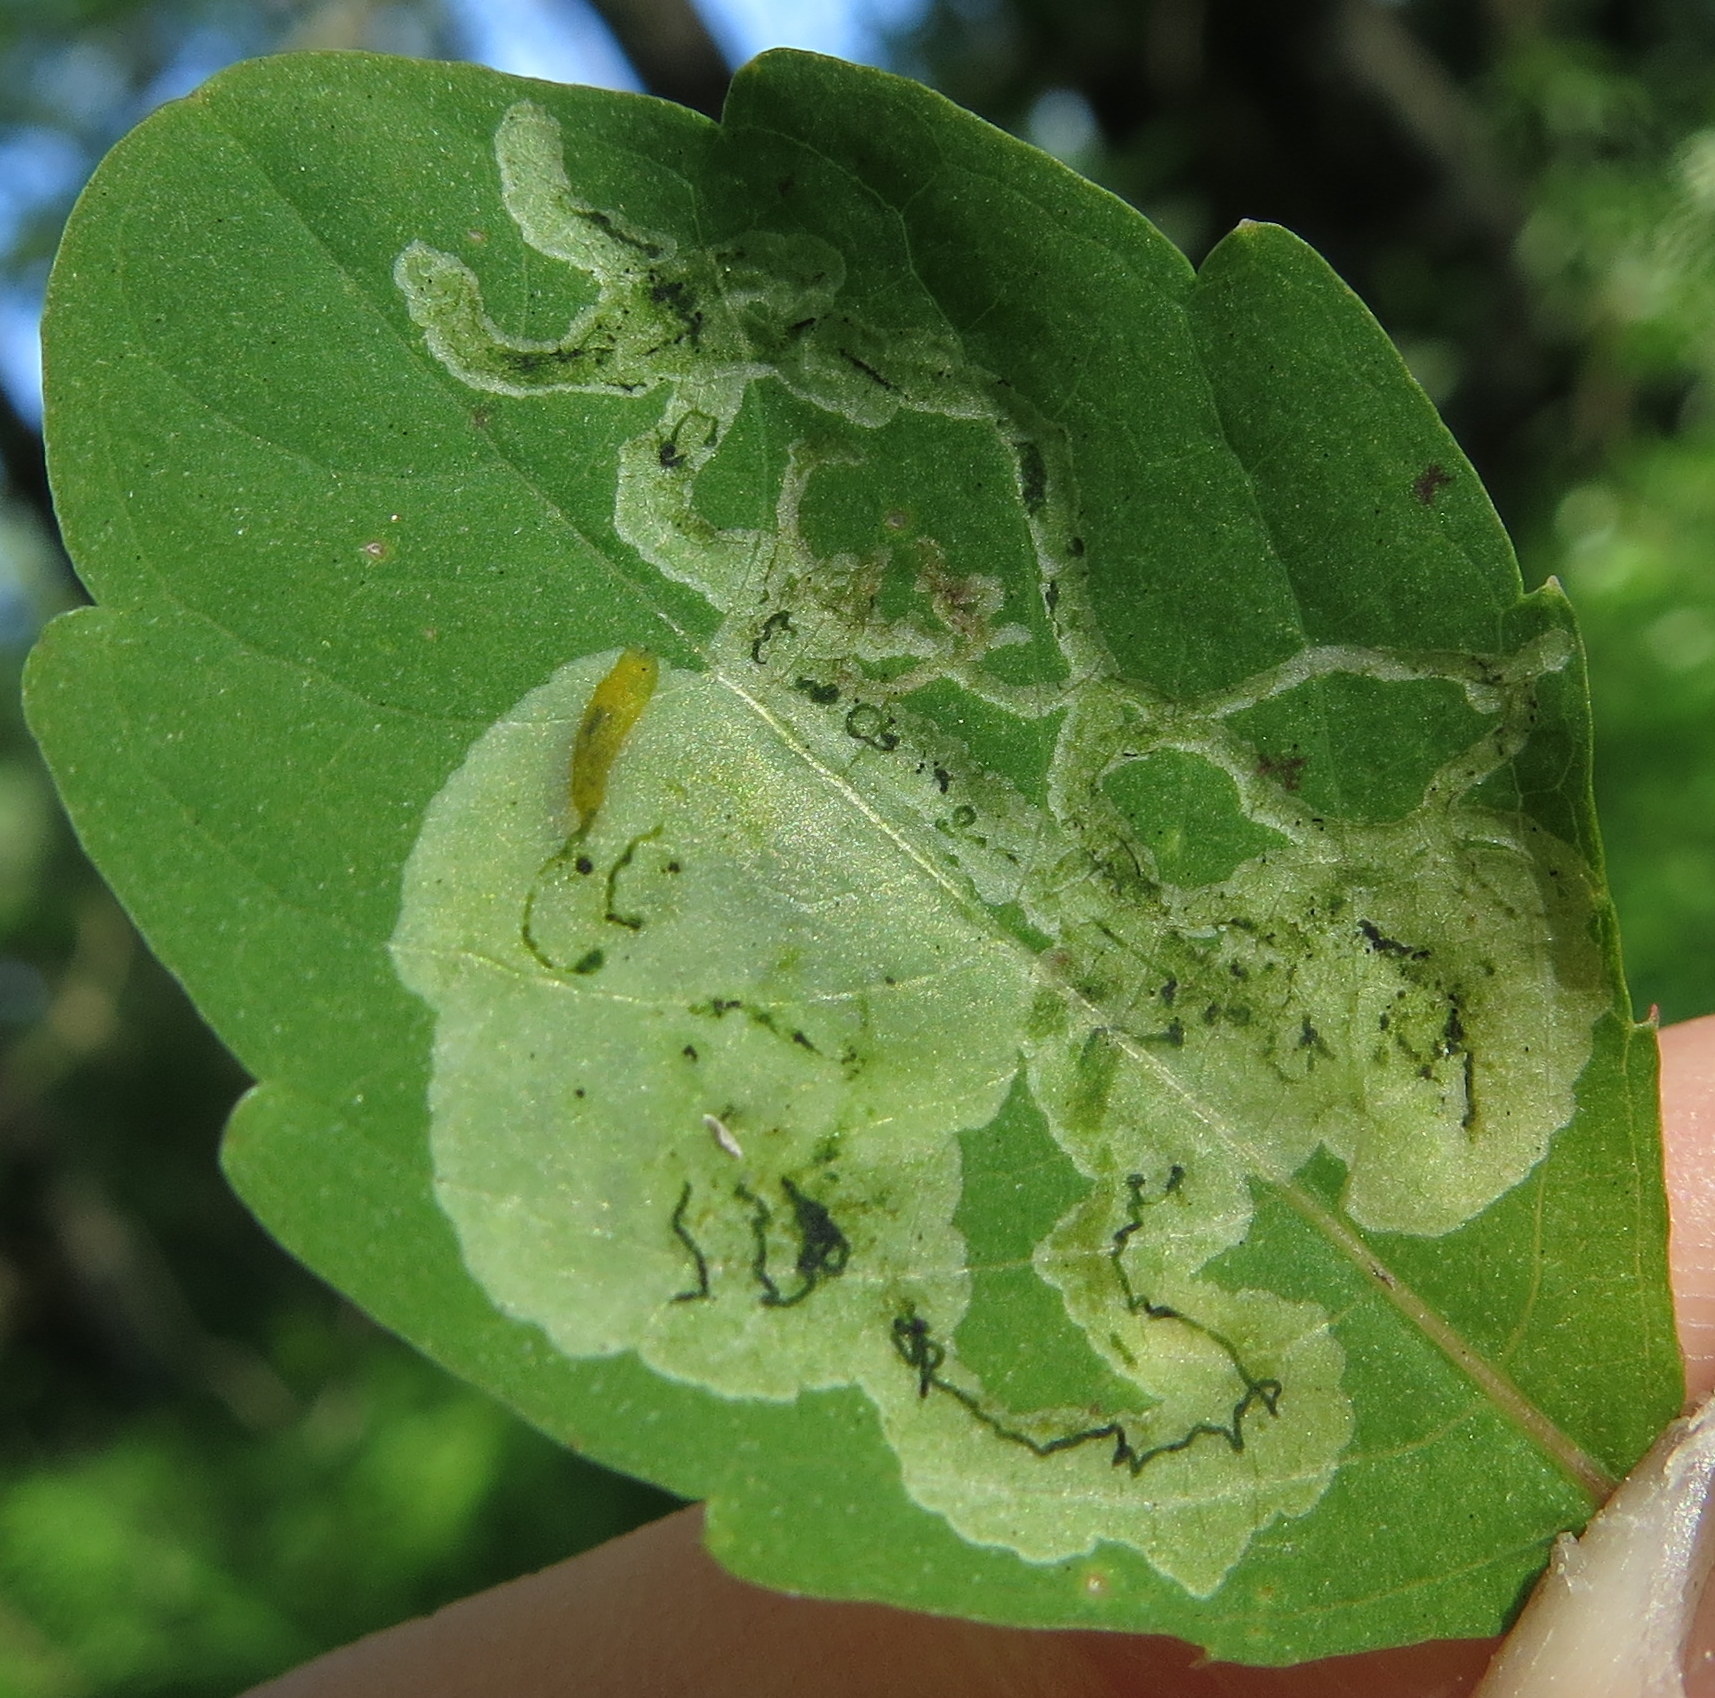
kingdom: Animalia
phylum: Arthropoda
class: Insecta
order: Diptera
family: Agromyzidae
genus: Phytoliriomyza
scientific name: Phytoliriomyza melampyga
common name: Jewelweed leaf-miner fly
